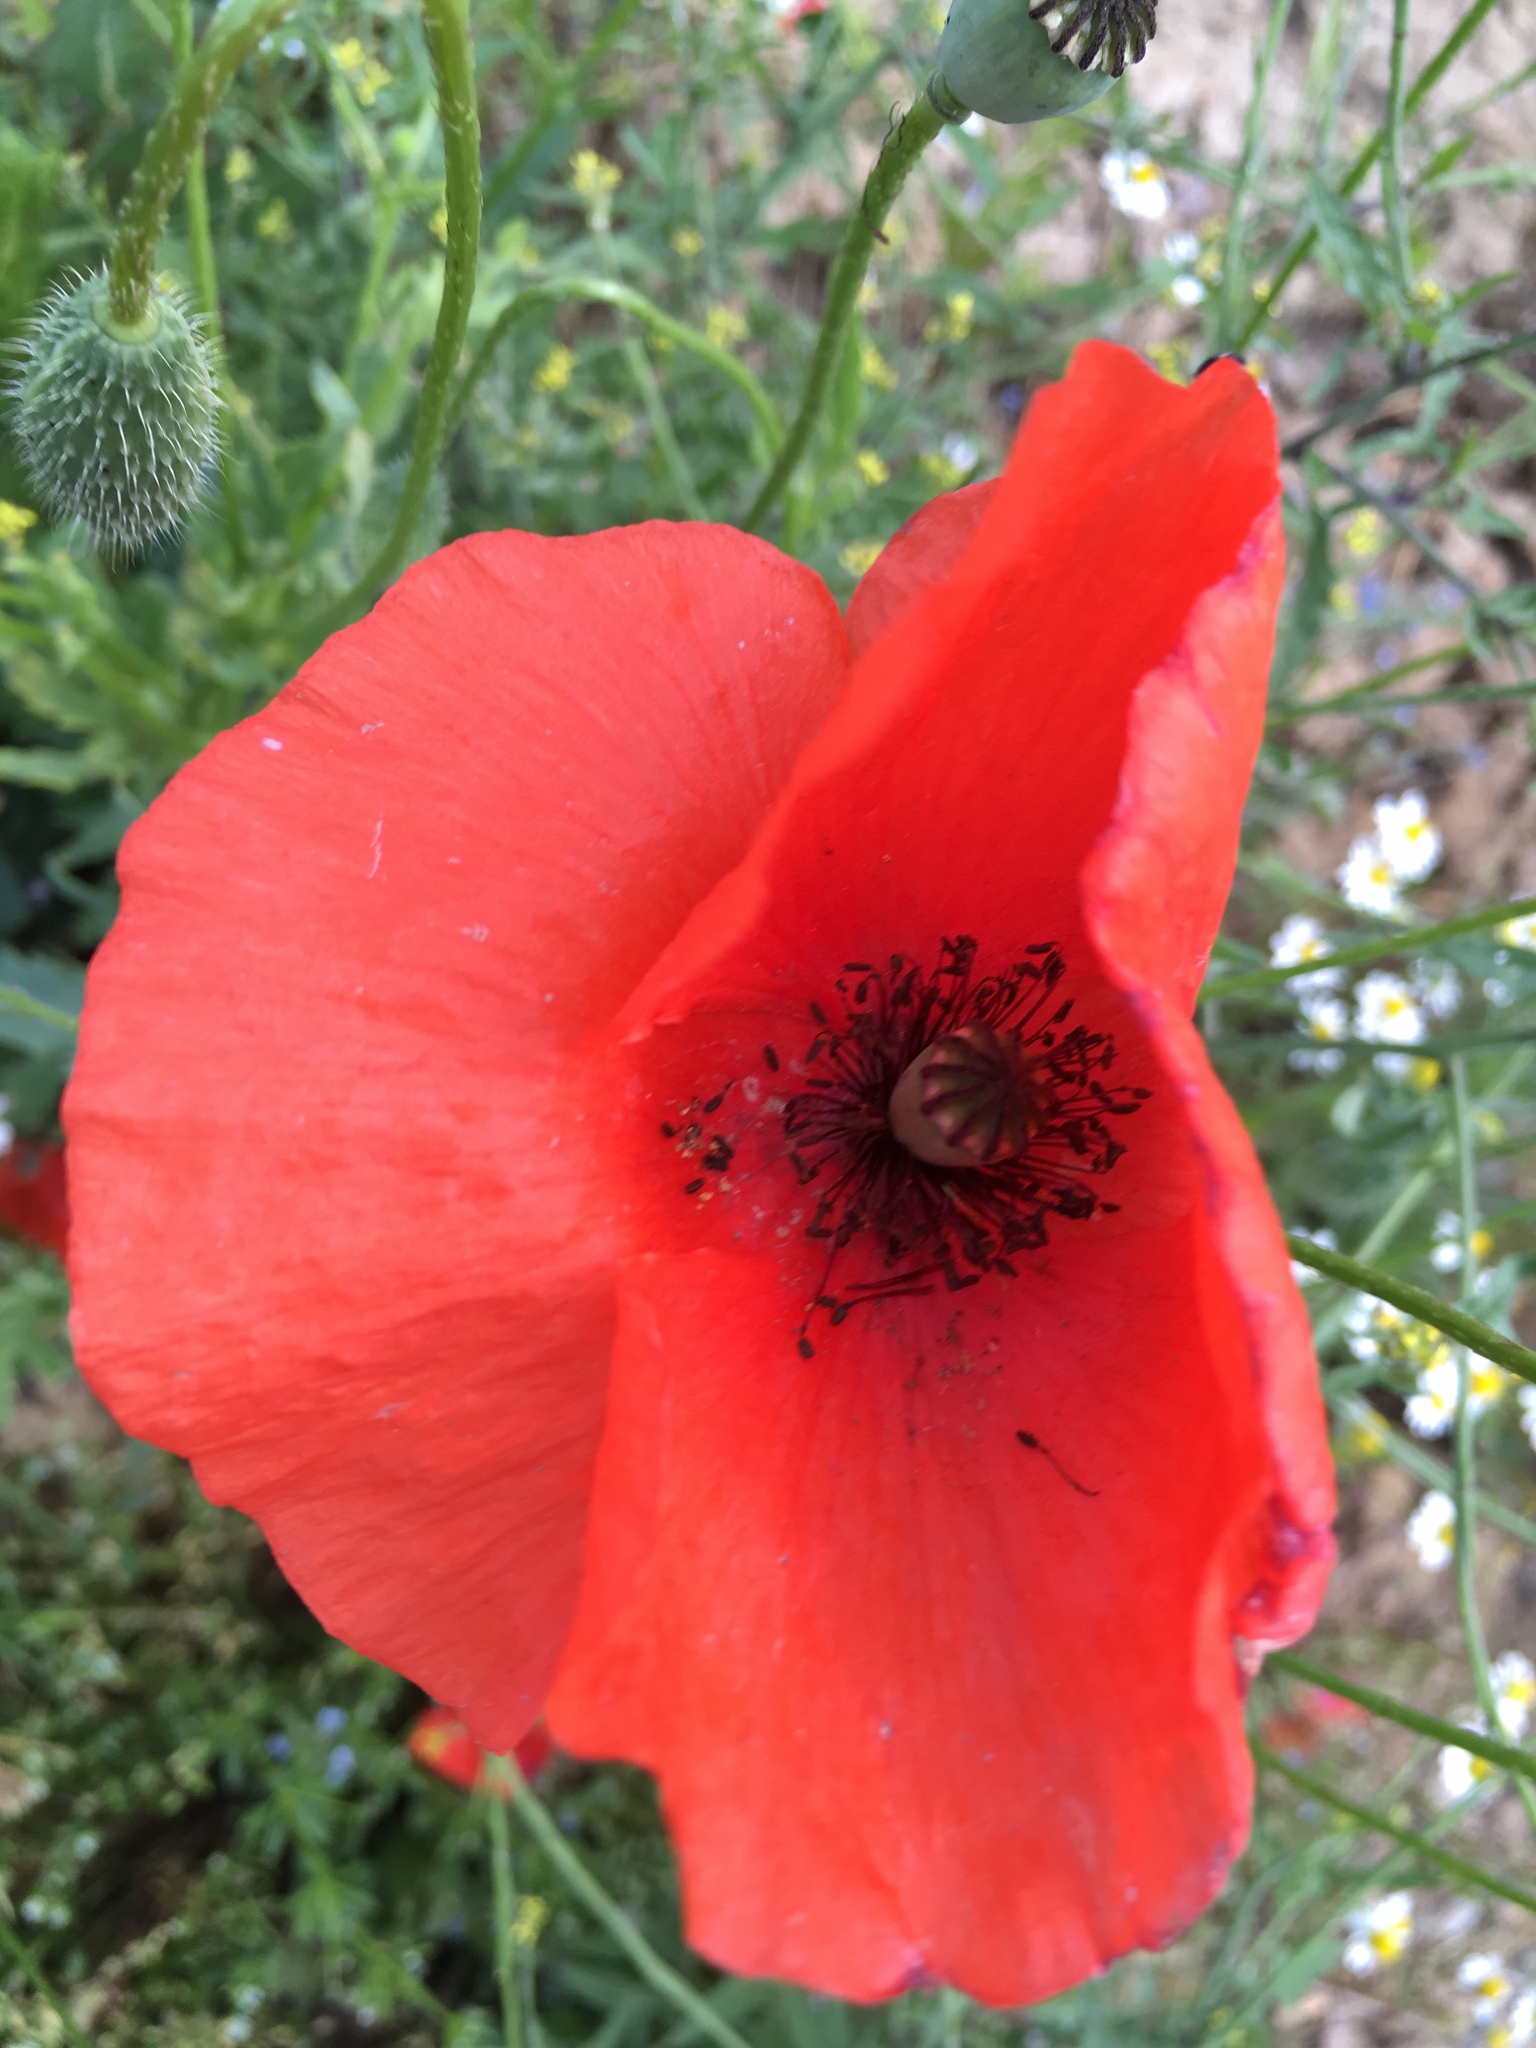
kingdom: Plantae
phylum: Tracheophyta
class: Magnoliopsida
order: Ranunculales
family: Papaveraceae
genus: Papaver
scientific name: Papaver rhoeas
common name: Corn poppy
